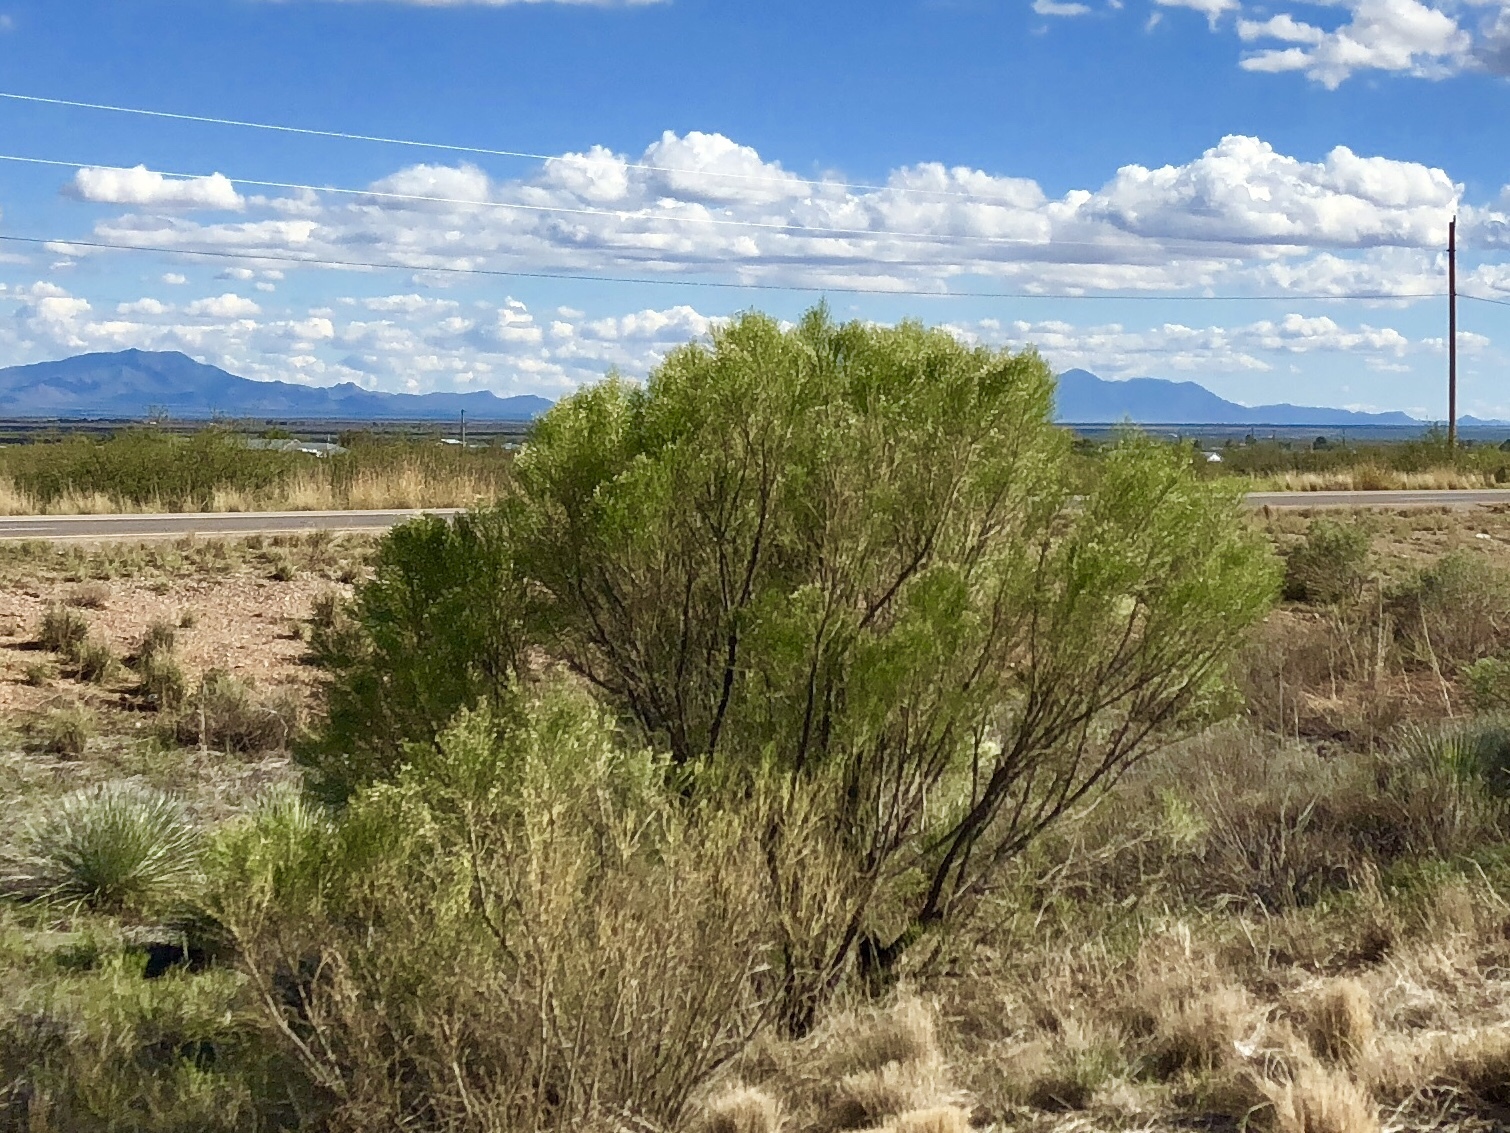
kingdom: Plantae
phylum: Tracheophyta
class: Magnoliopsida
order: Asterales
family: Asteraceae
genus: Baccharis
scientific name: Baccharis sarothroides
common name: Desert-broom
